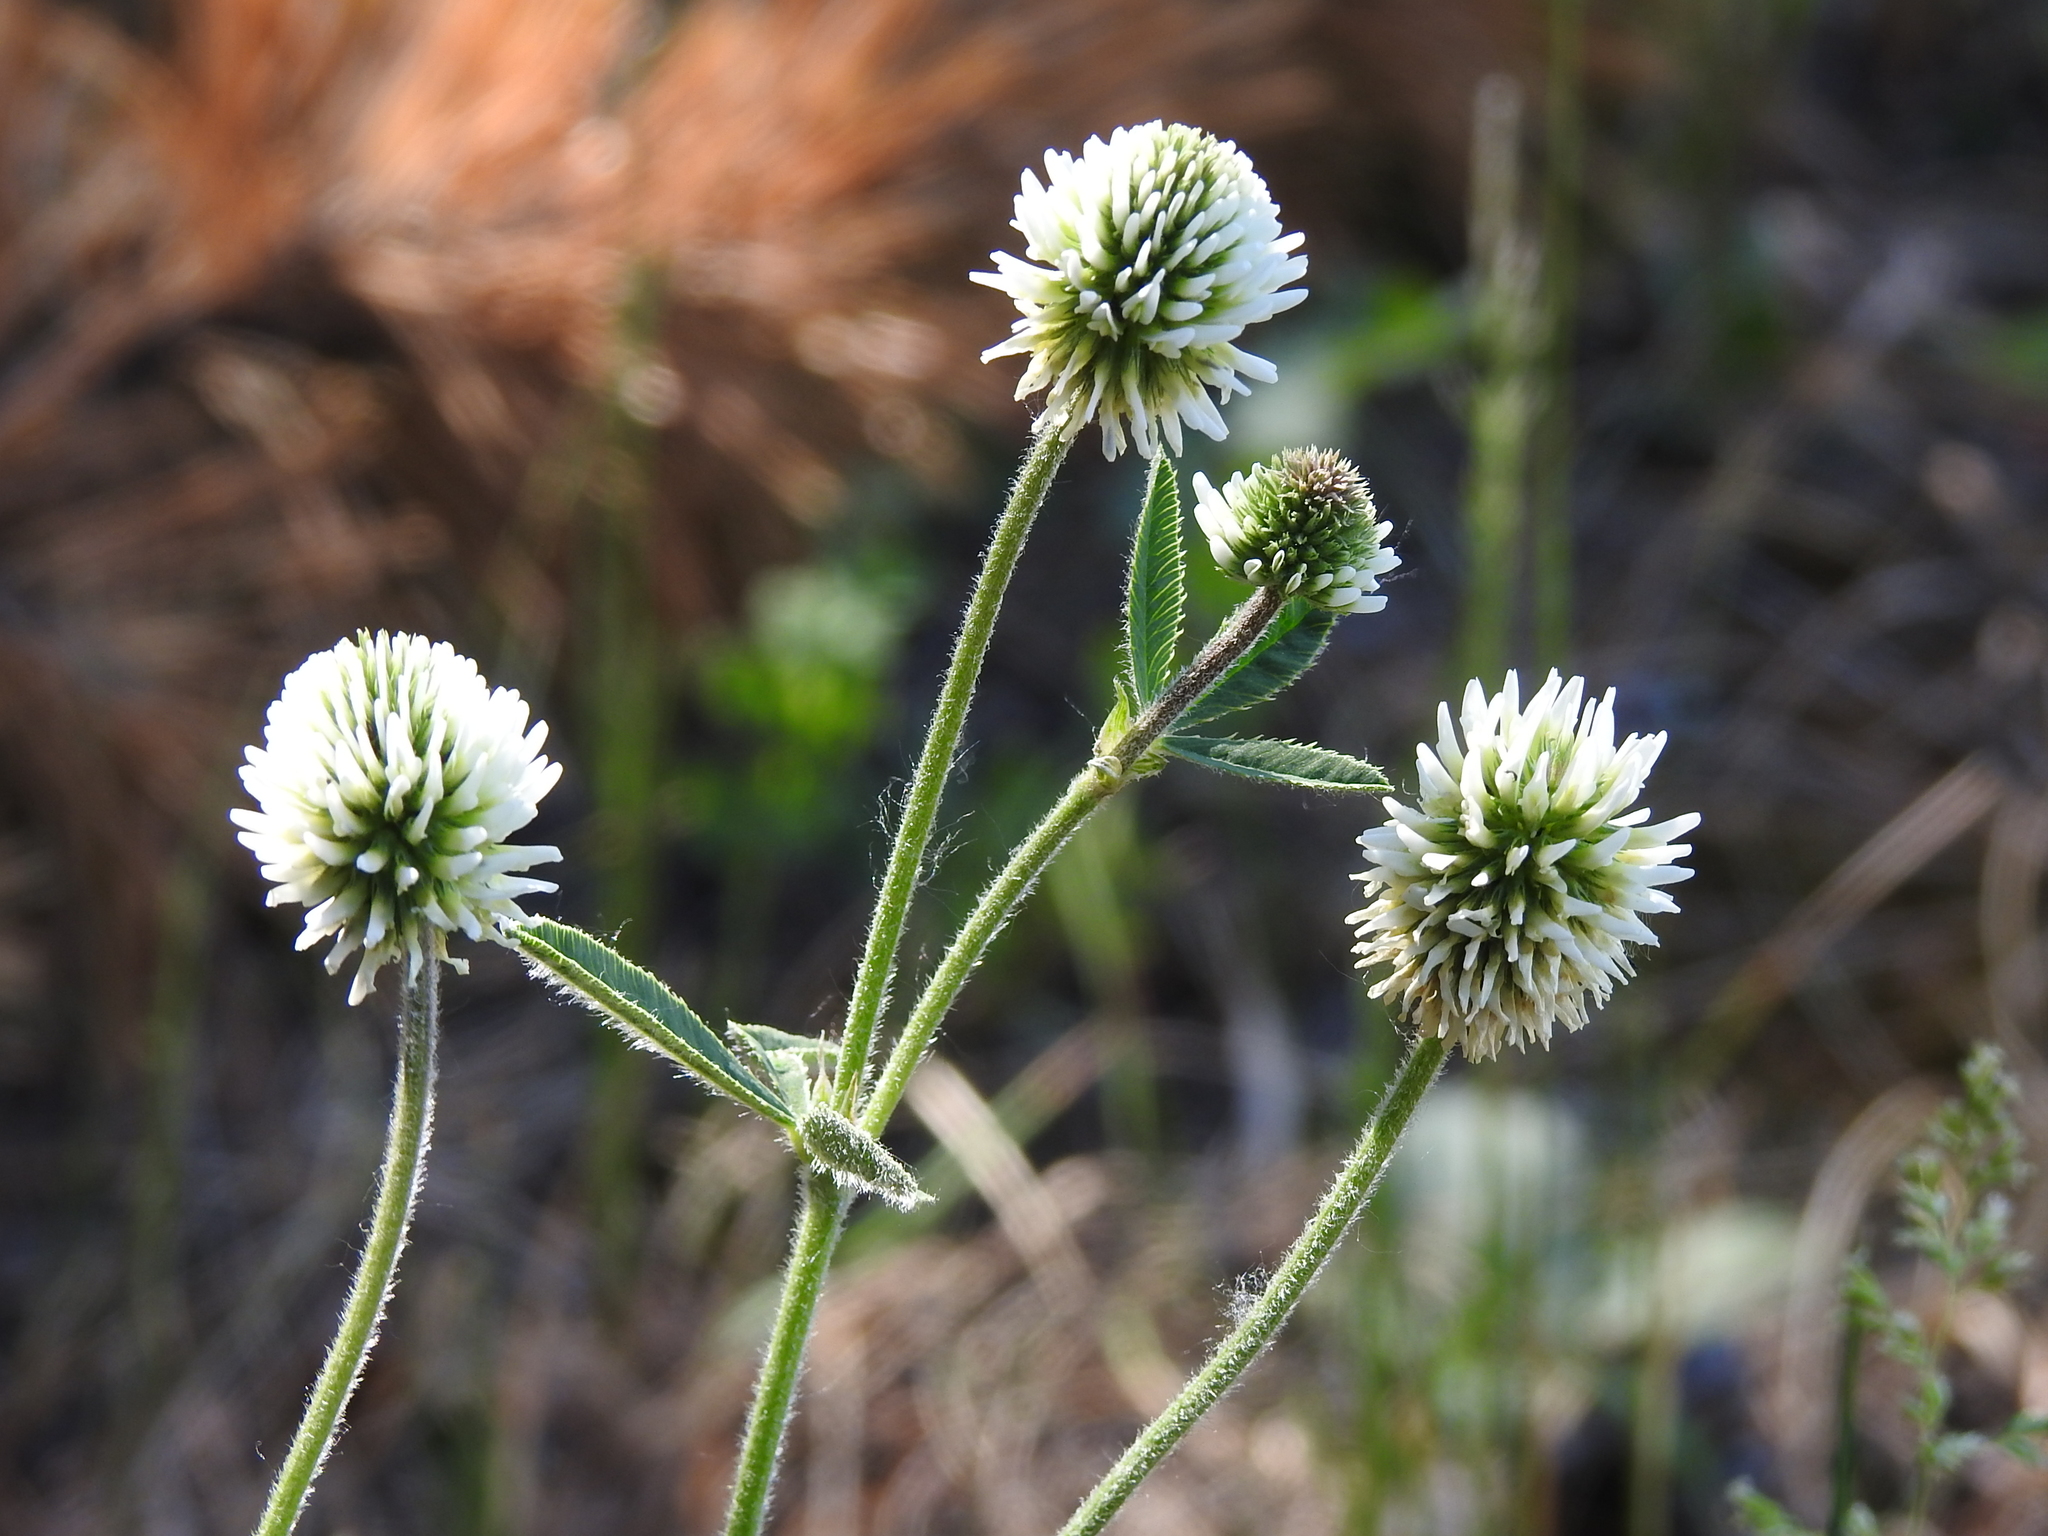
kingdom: Plantae
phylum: Tracheophyta
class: Magnoliopsida
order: Fabales
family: Fabaceae
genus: Trifolium
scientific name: Trifolium montanum
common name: Mountain clover
